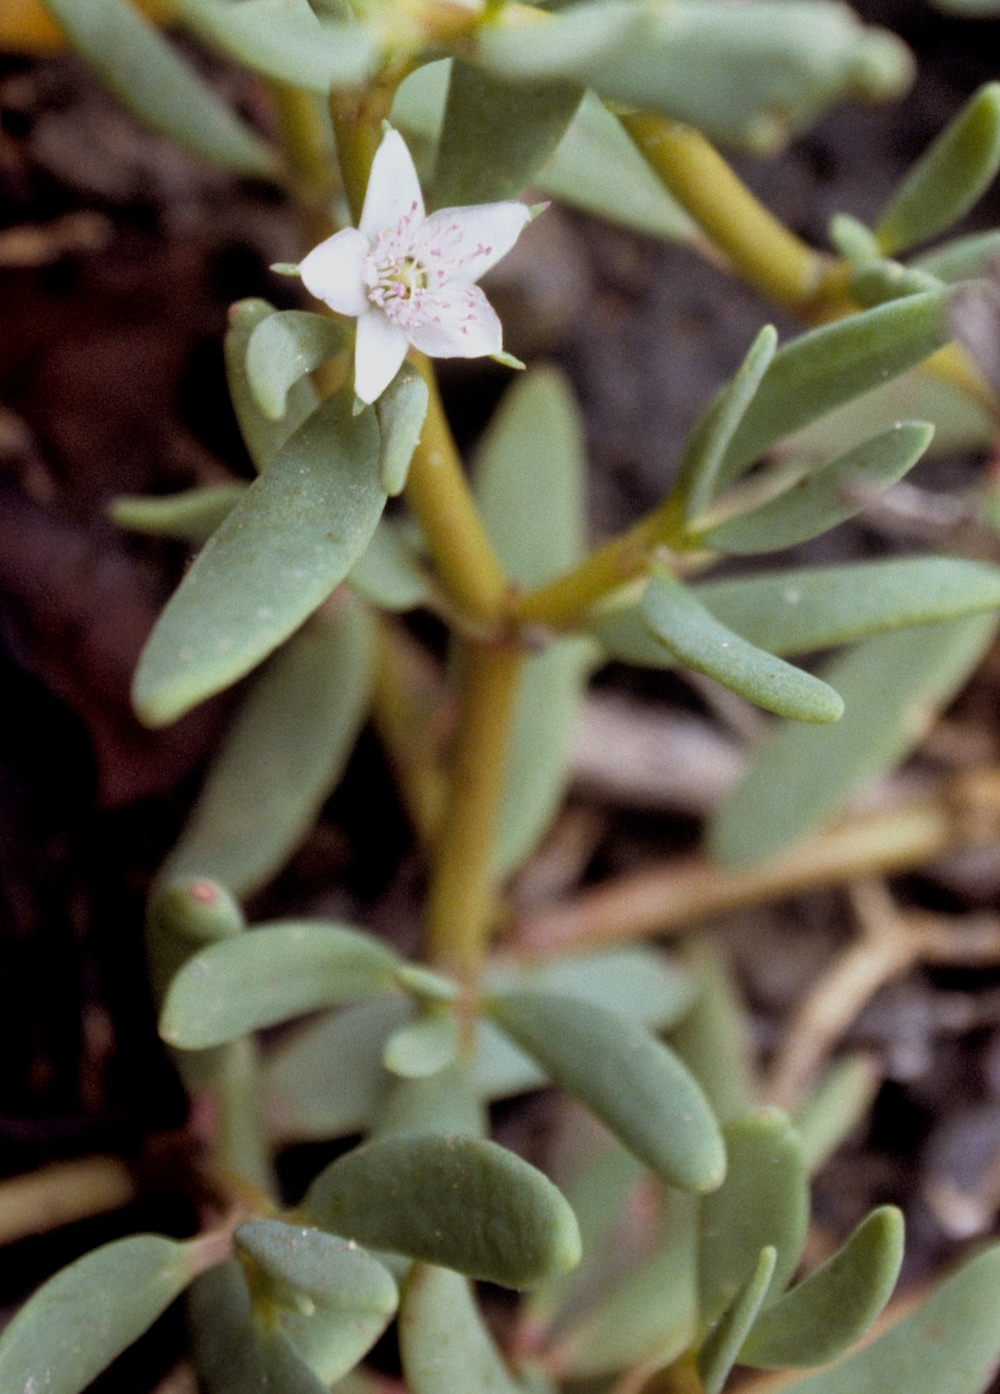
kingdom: Plantae
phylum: Tracheophyta
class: Magnoliopsida
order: Caryophyllales
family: Aizoaceae
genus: Sesuvium
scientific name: Sesuvium portulacastrum
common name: Sea-purslane
